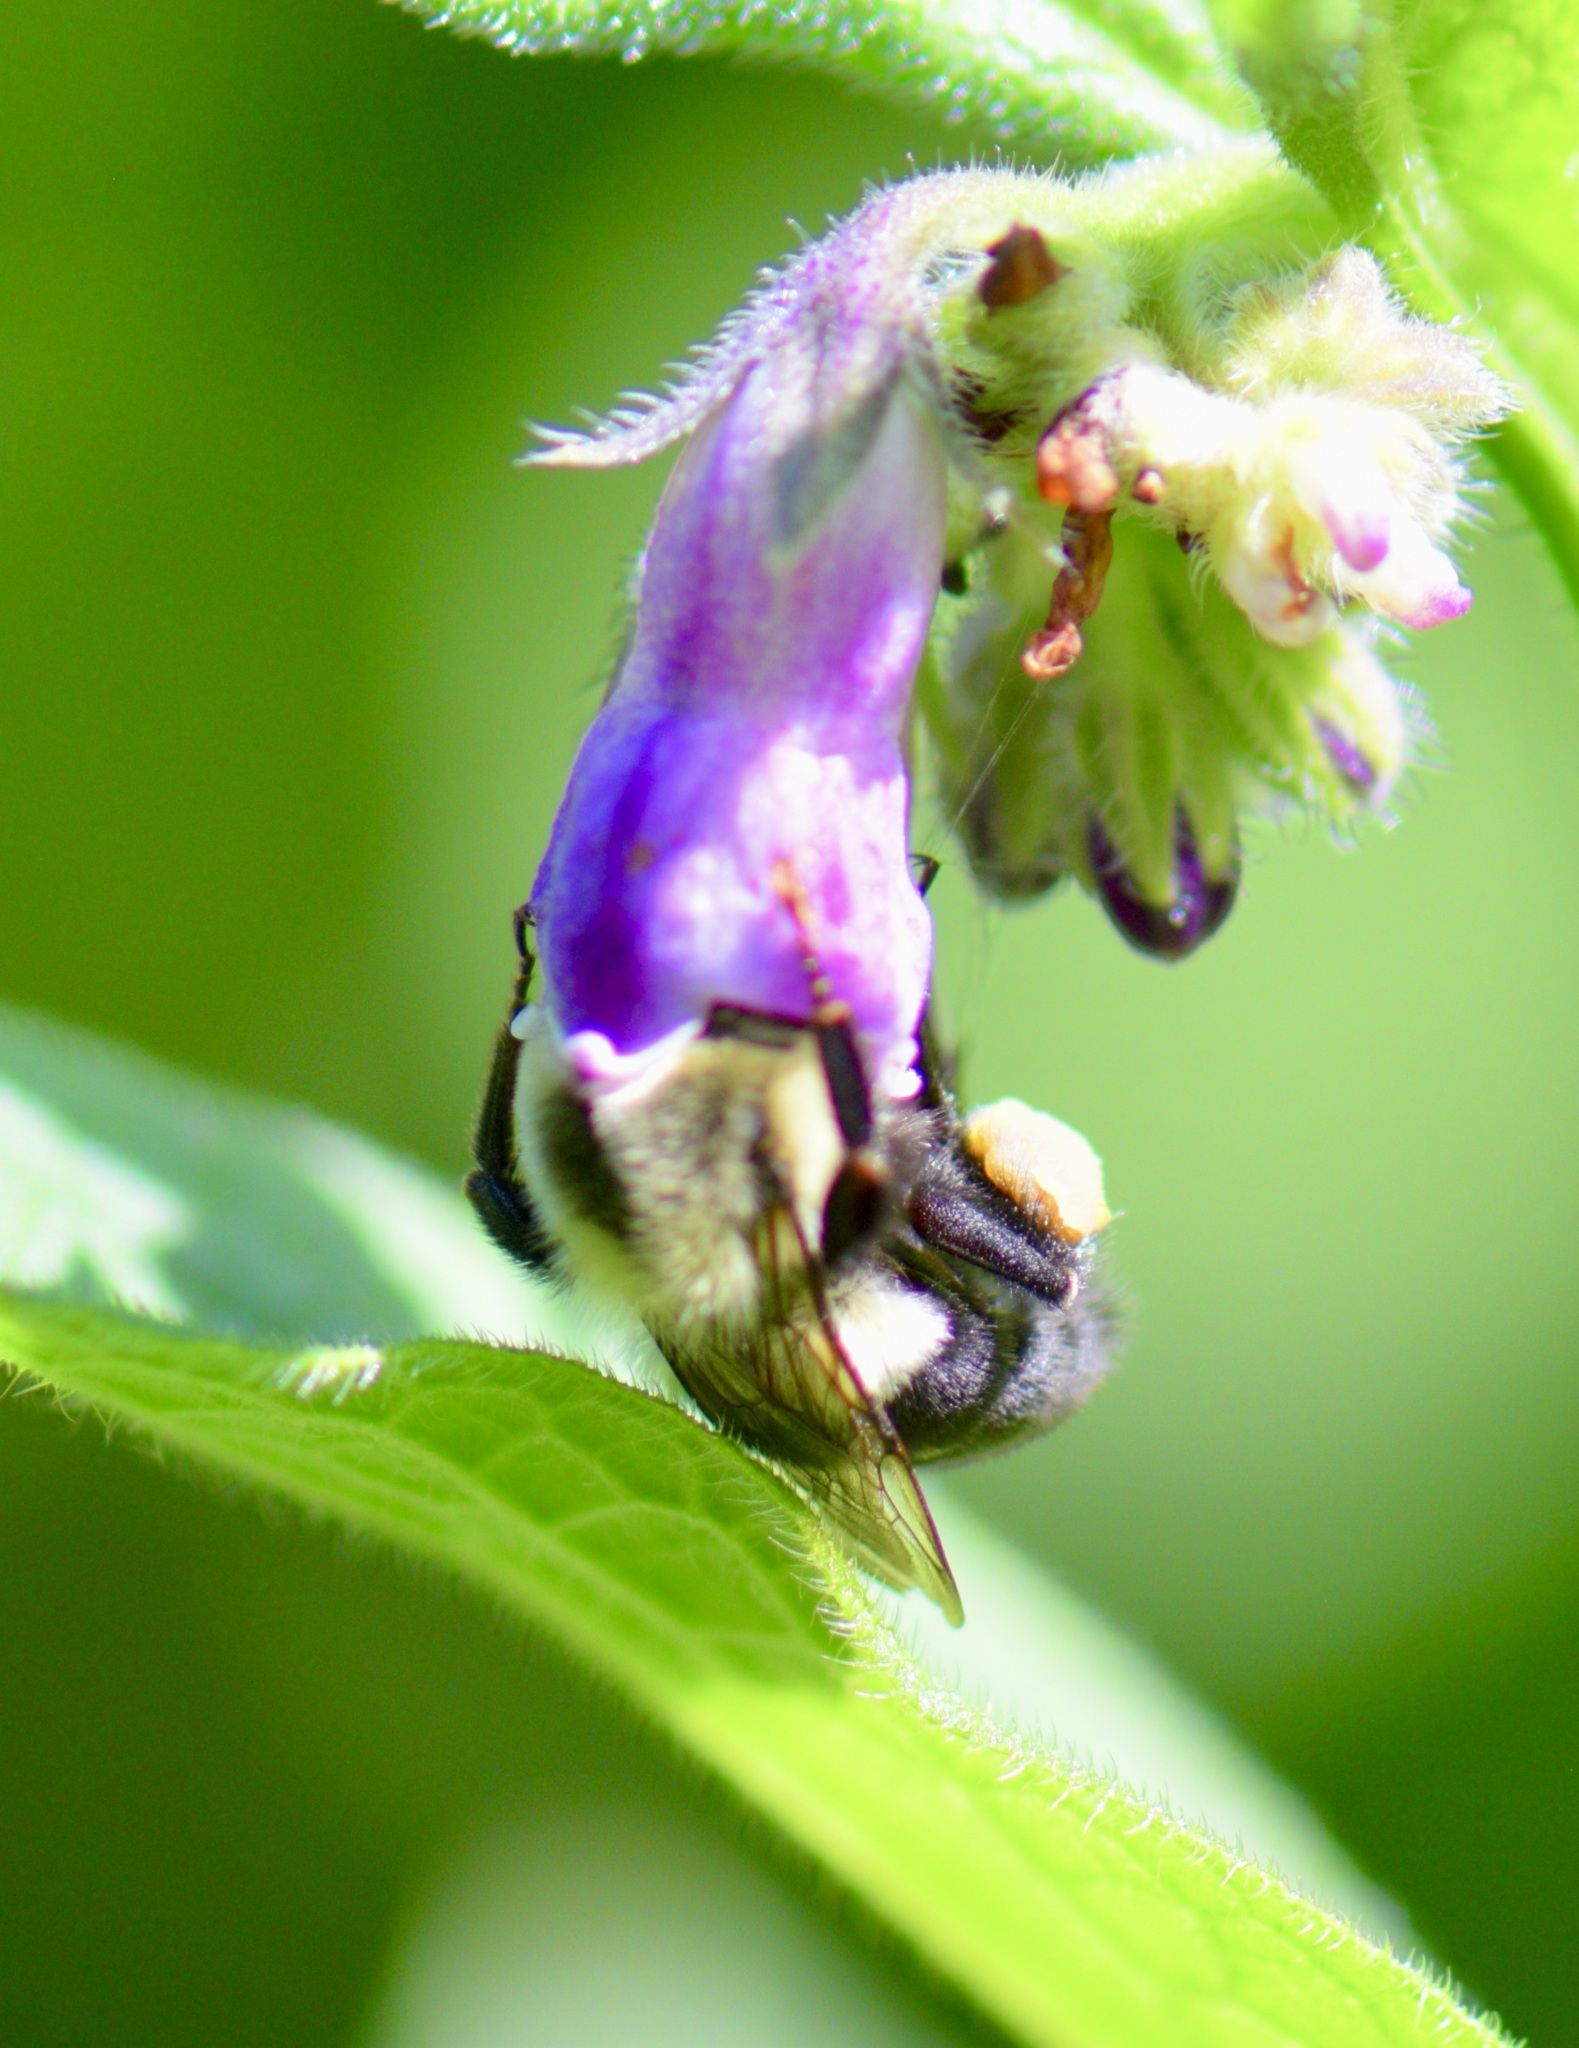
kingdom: Animalia
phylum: Arthropoda
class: Insecta
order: Hymenoptera
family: Apidae
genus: Bombus
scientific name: Bombus impatiens
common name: Common eastern bumble bee
